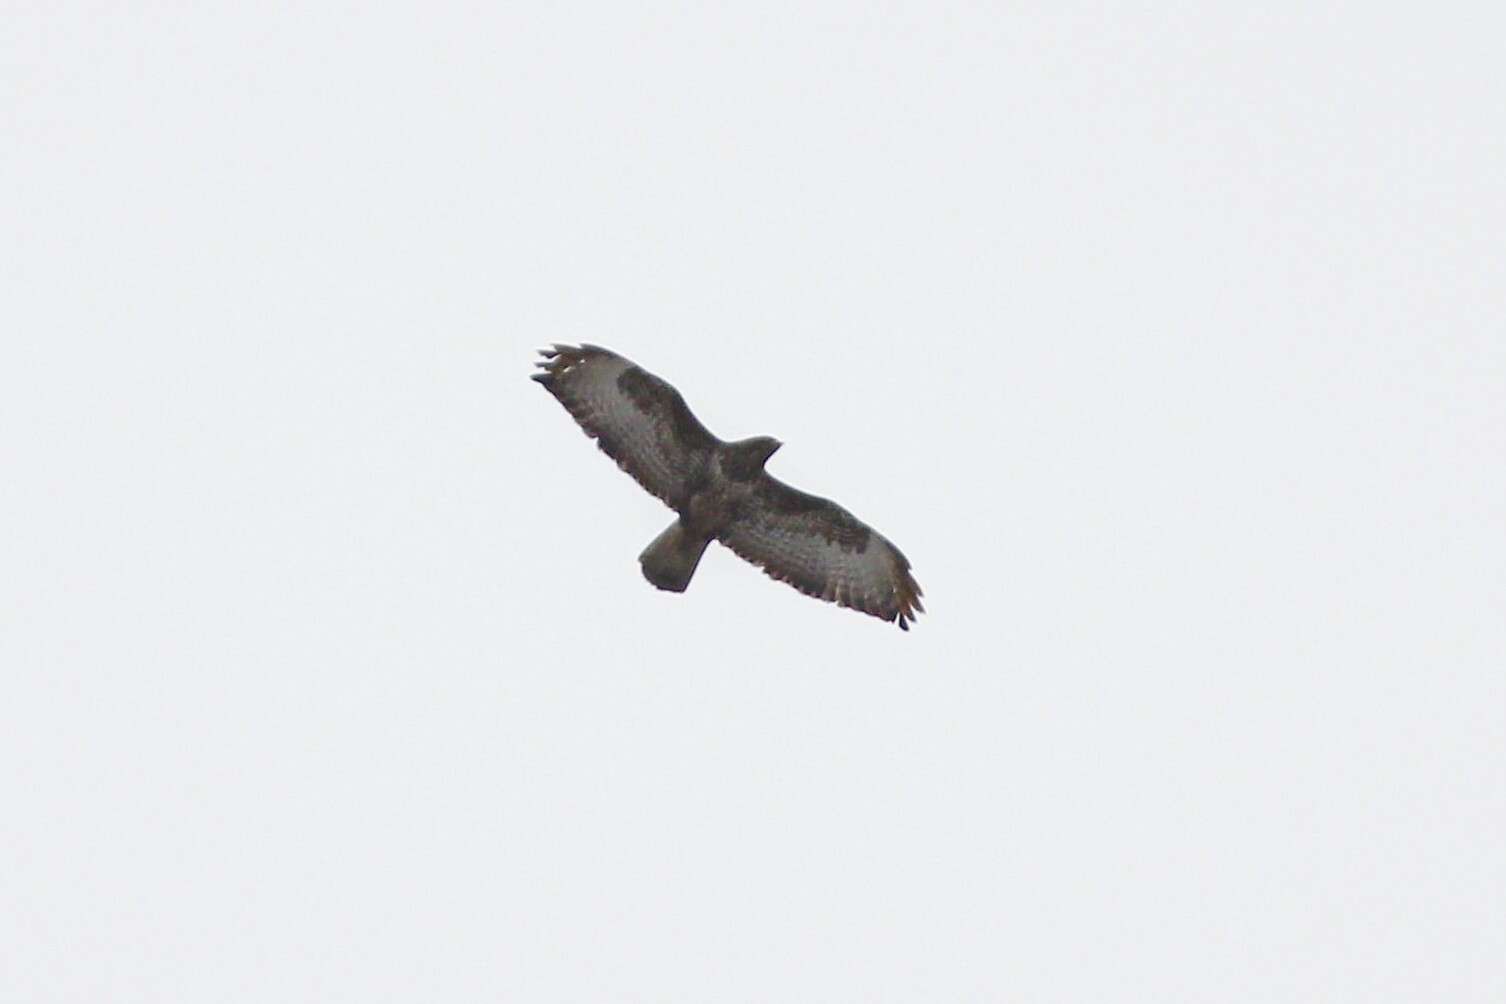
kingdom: Animalia
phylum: Chordata
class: Aves
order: Accipitriformes
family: Accipitridae
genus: Buteo
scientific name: Buteo buteo
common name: Common buzzard
